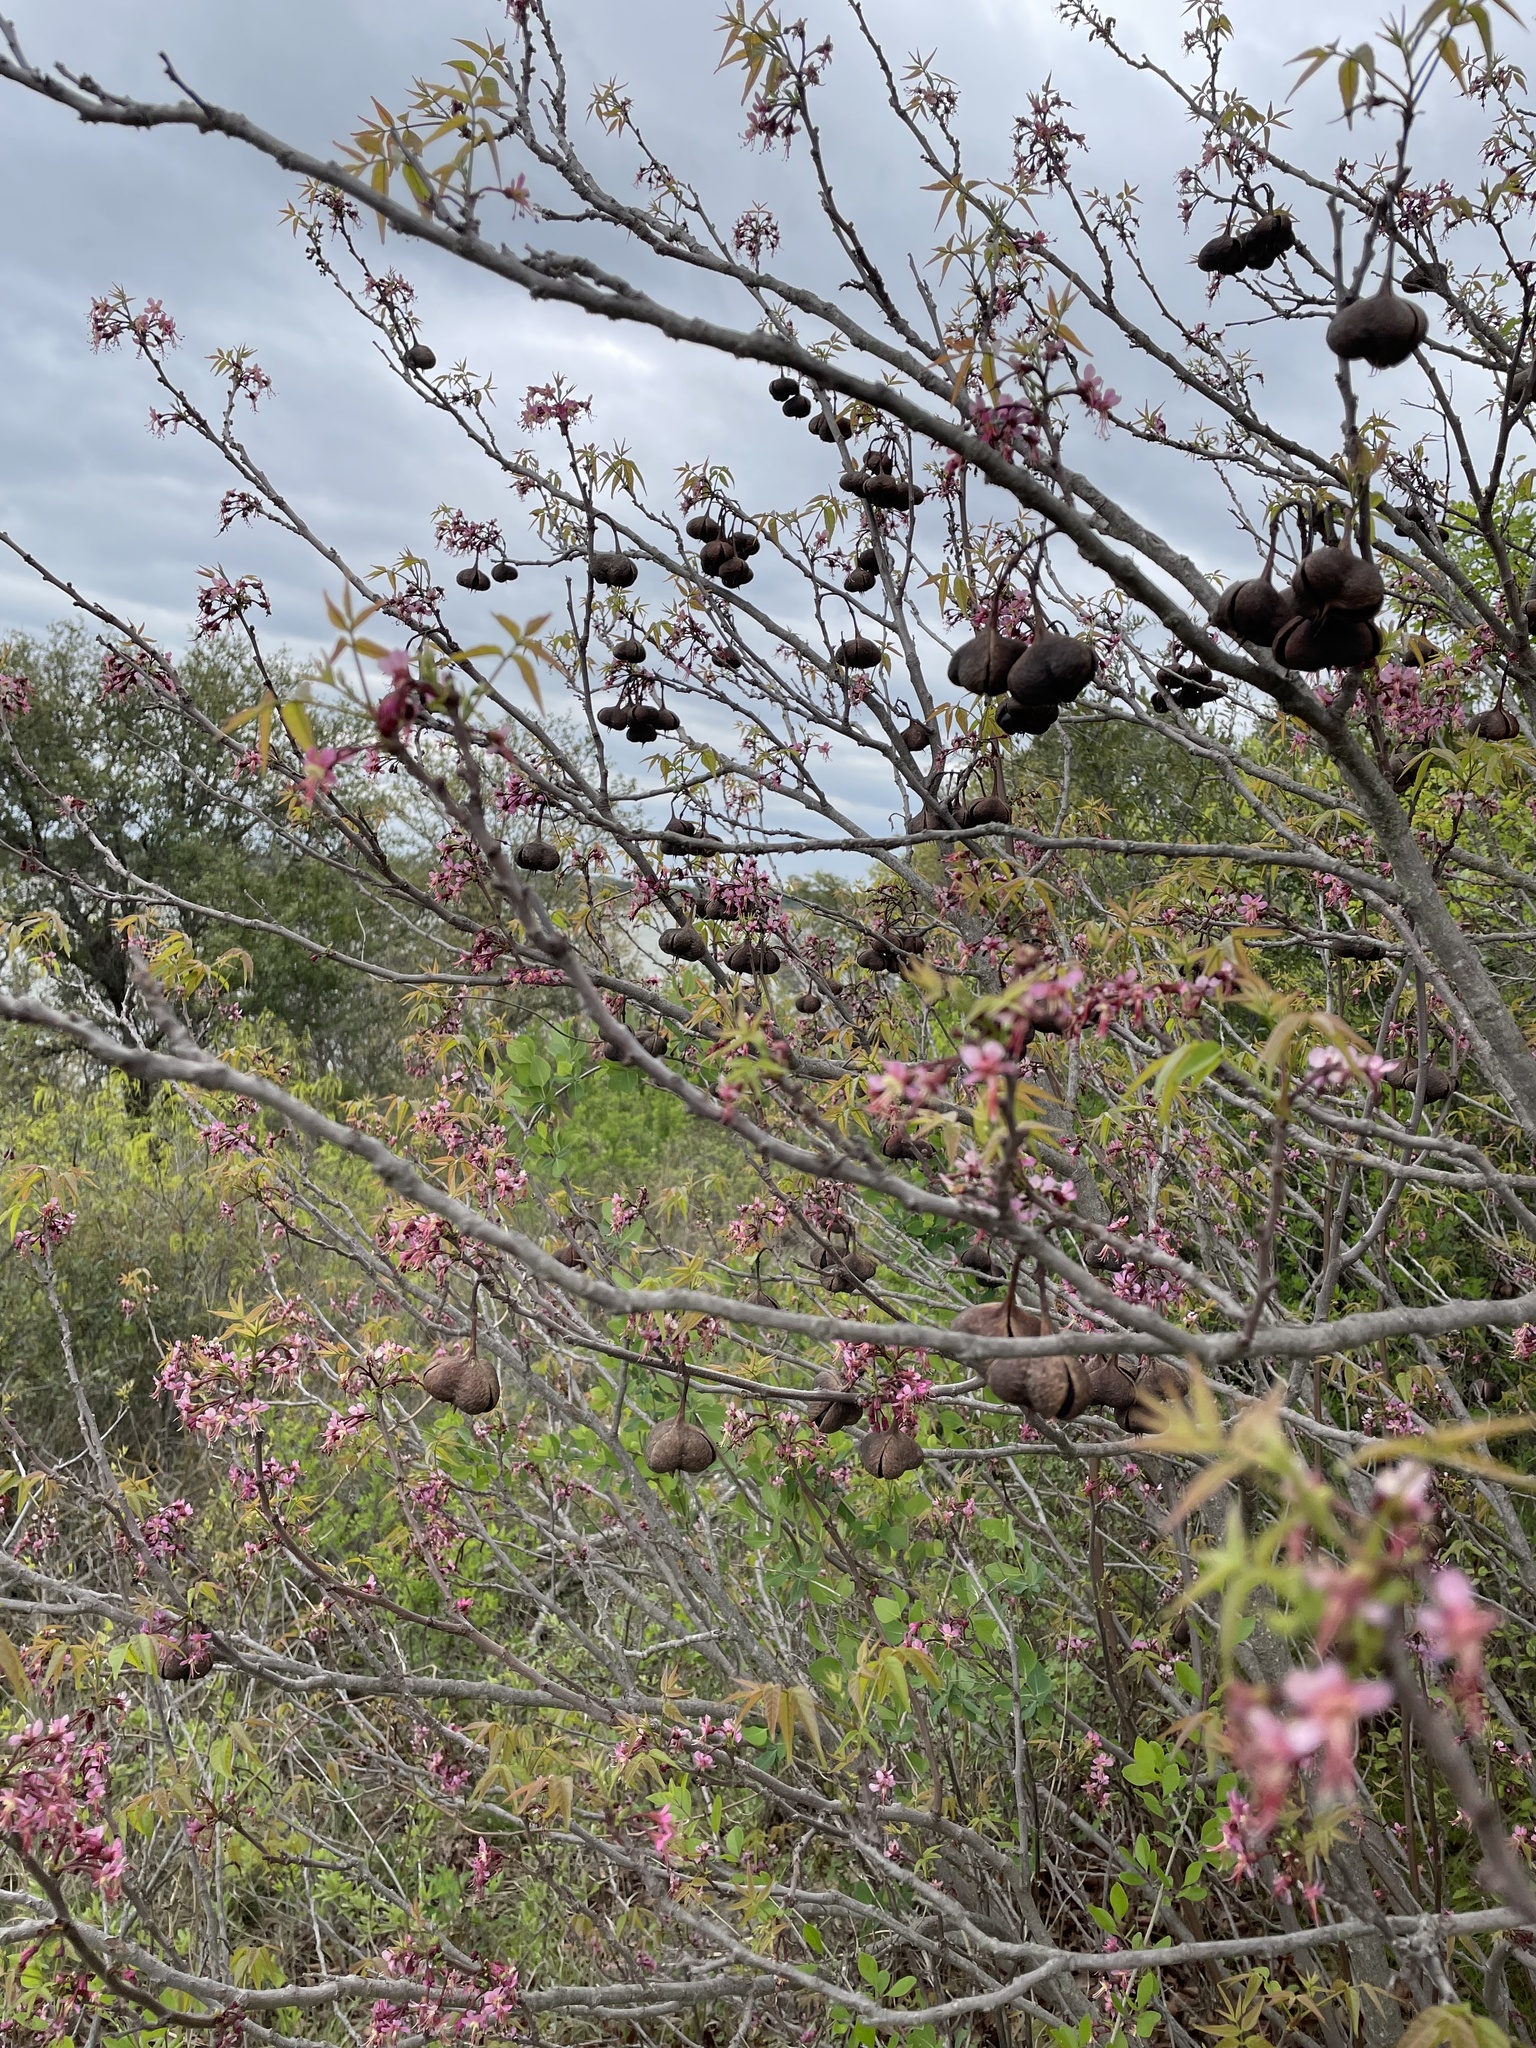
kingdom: Plantae
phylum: Tracheophyta
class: Magnoliopsida
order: Sapindales
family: Sapindaceae
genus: Ungnadia
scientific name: Ungnadia speciosa
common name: Texas-buckeye
